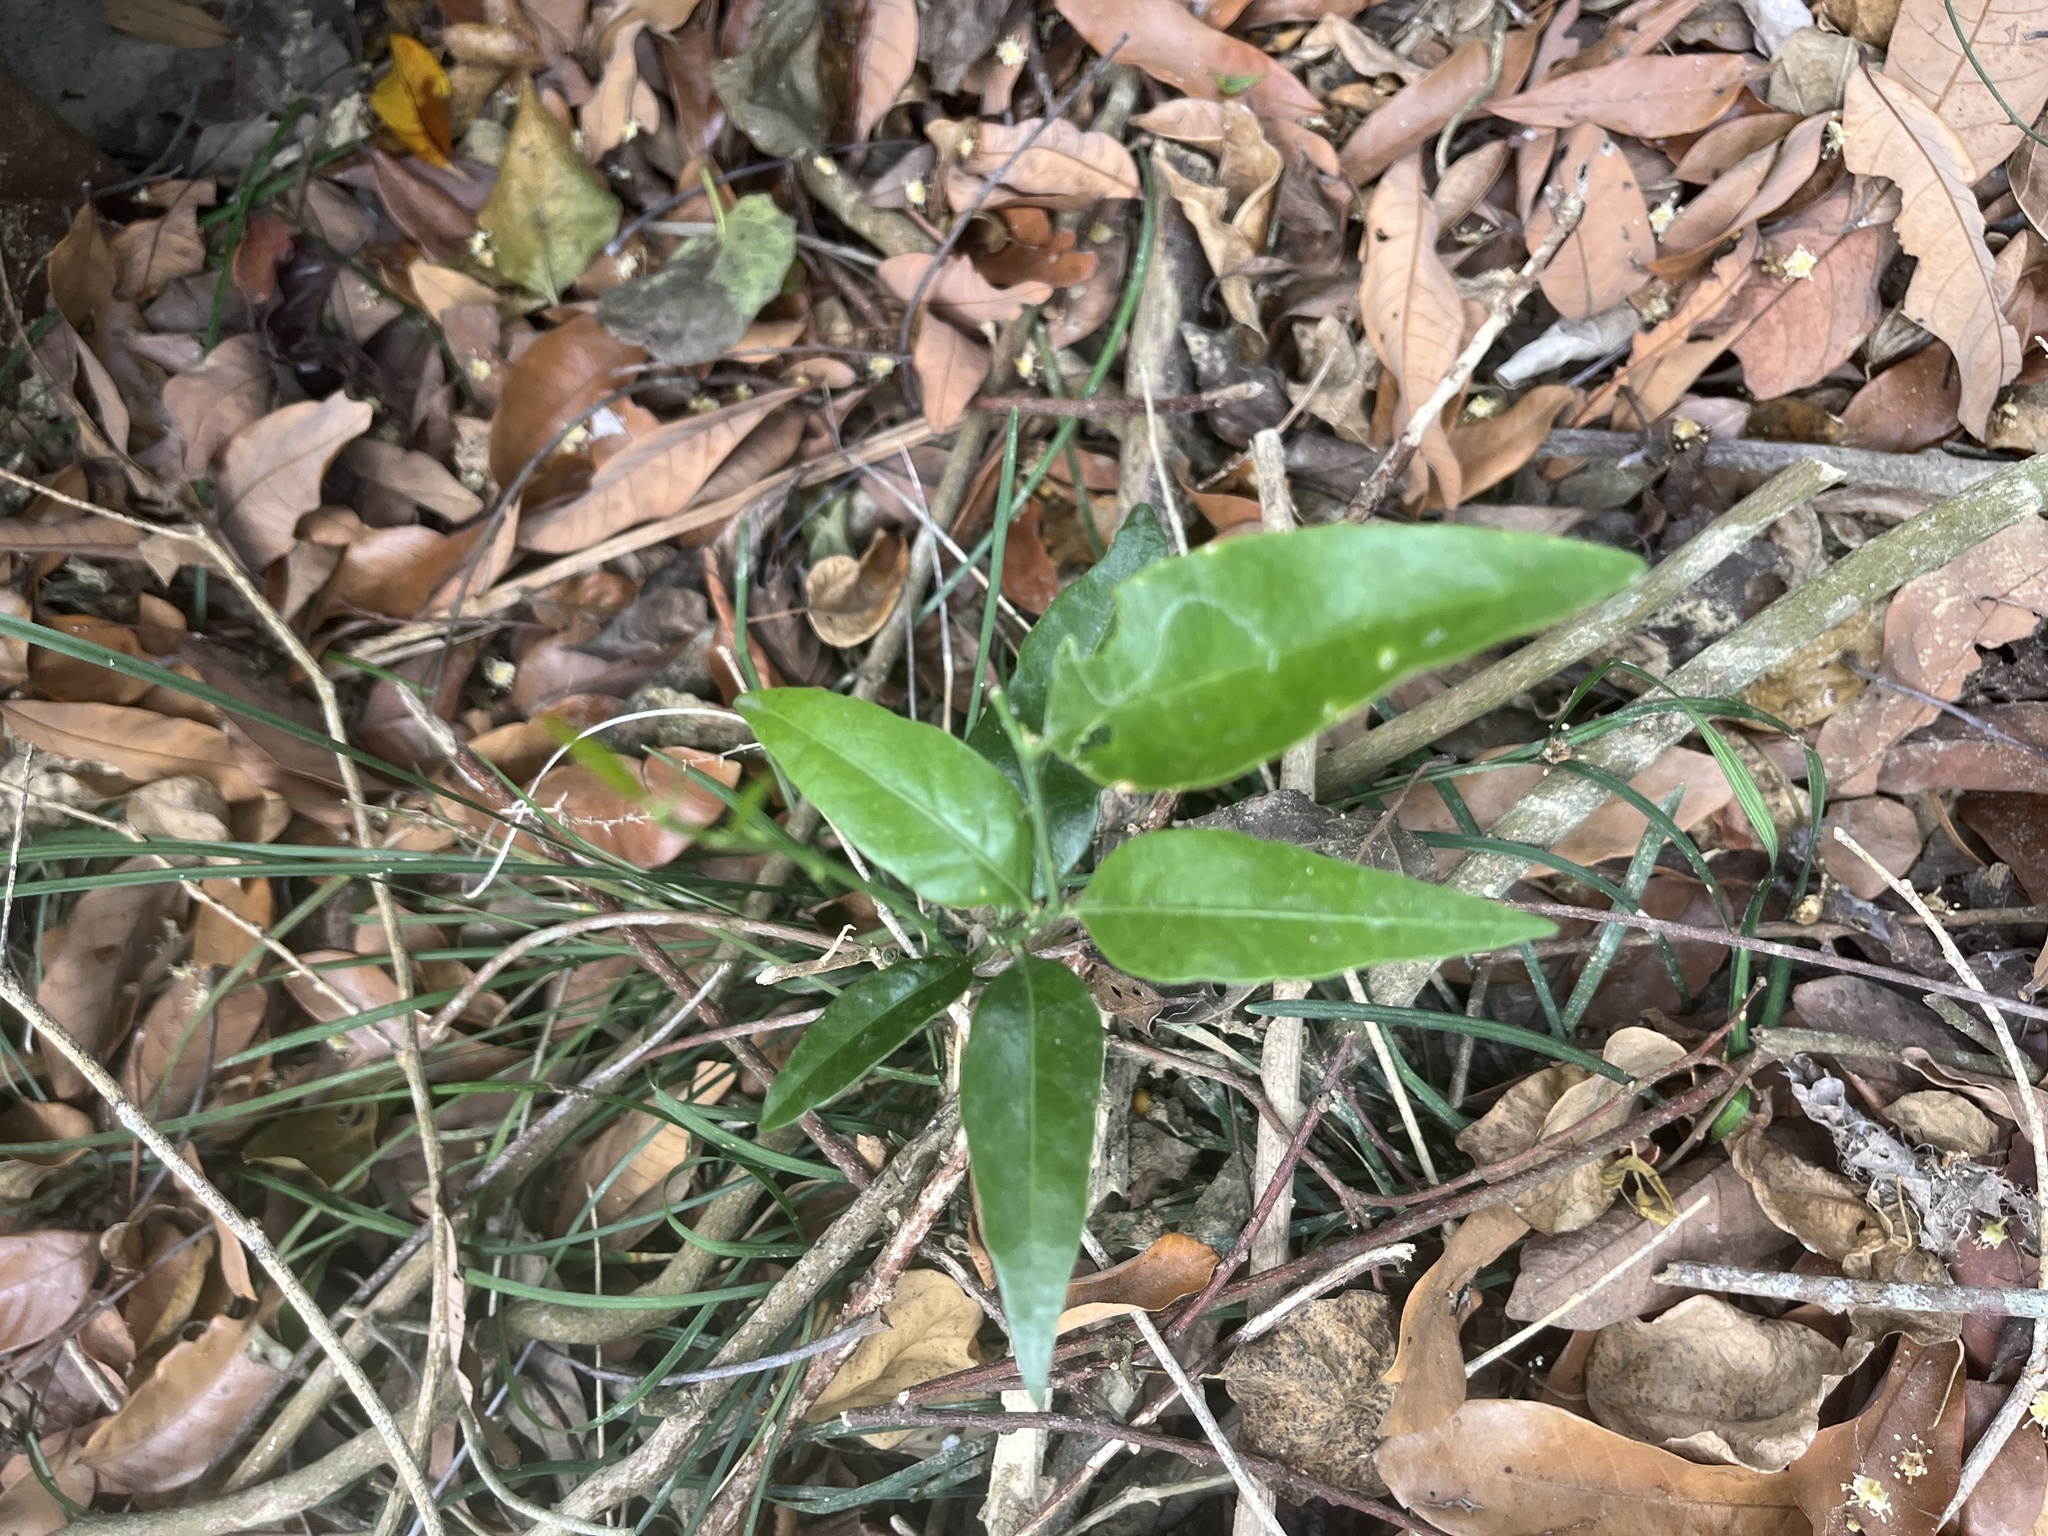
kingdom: Plantae
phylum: Tracheophyta
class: Magnoliopsida
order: Santalales
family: Opiliaceae
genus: Champereia
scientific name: Champereia manillana
